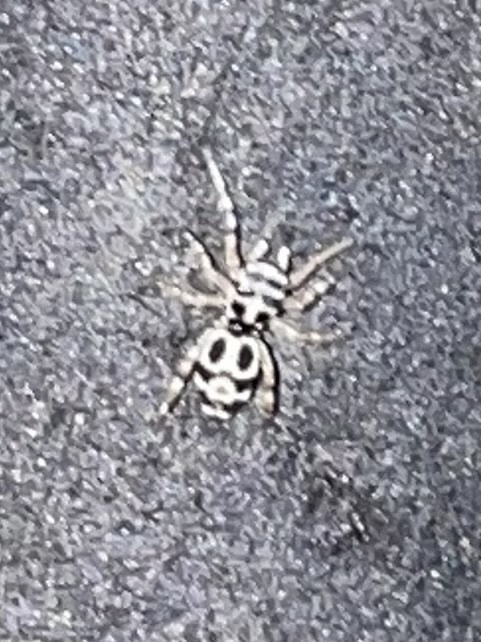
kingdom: Animalia
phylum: Arthropoda
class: Arachnida
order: Araneae
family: Salticidae
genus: Cyllodania
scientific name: Cyllodania bicruciata
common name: Jumping spiders
